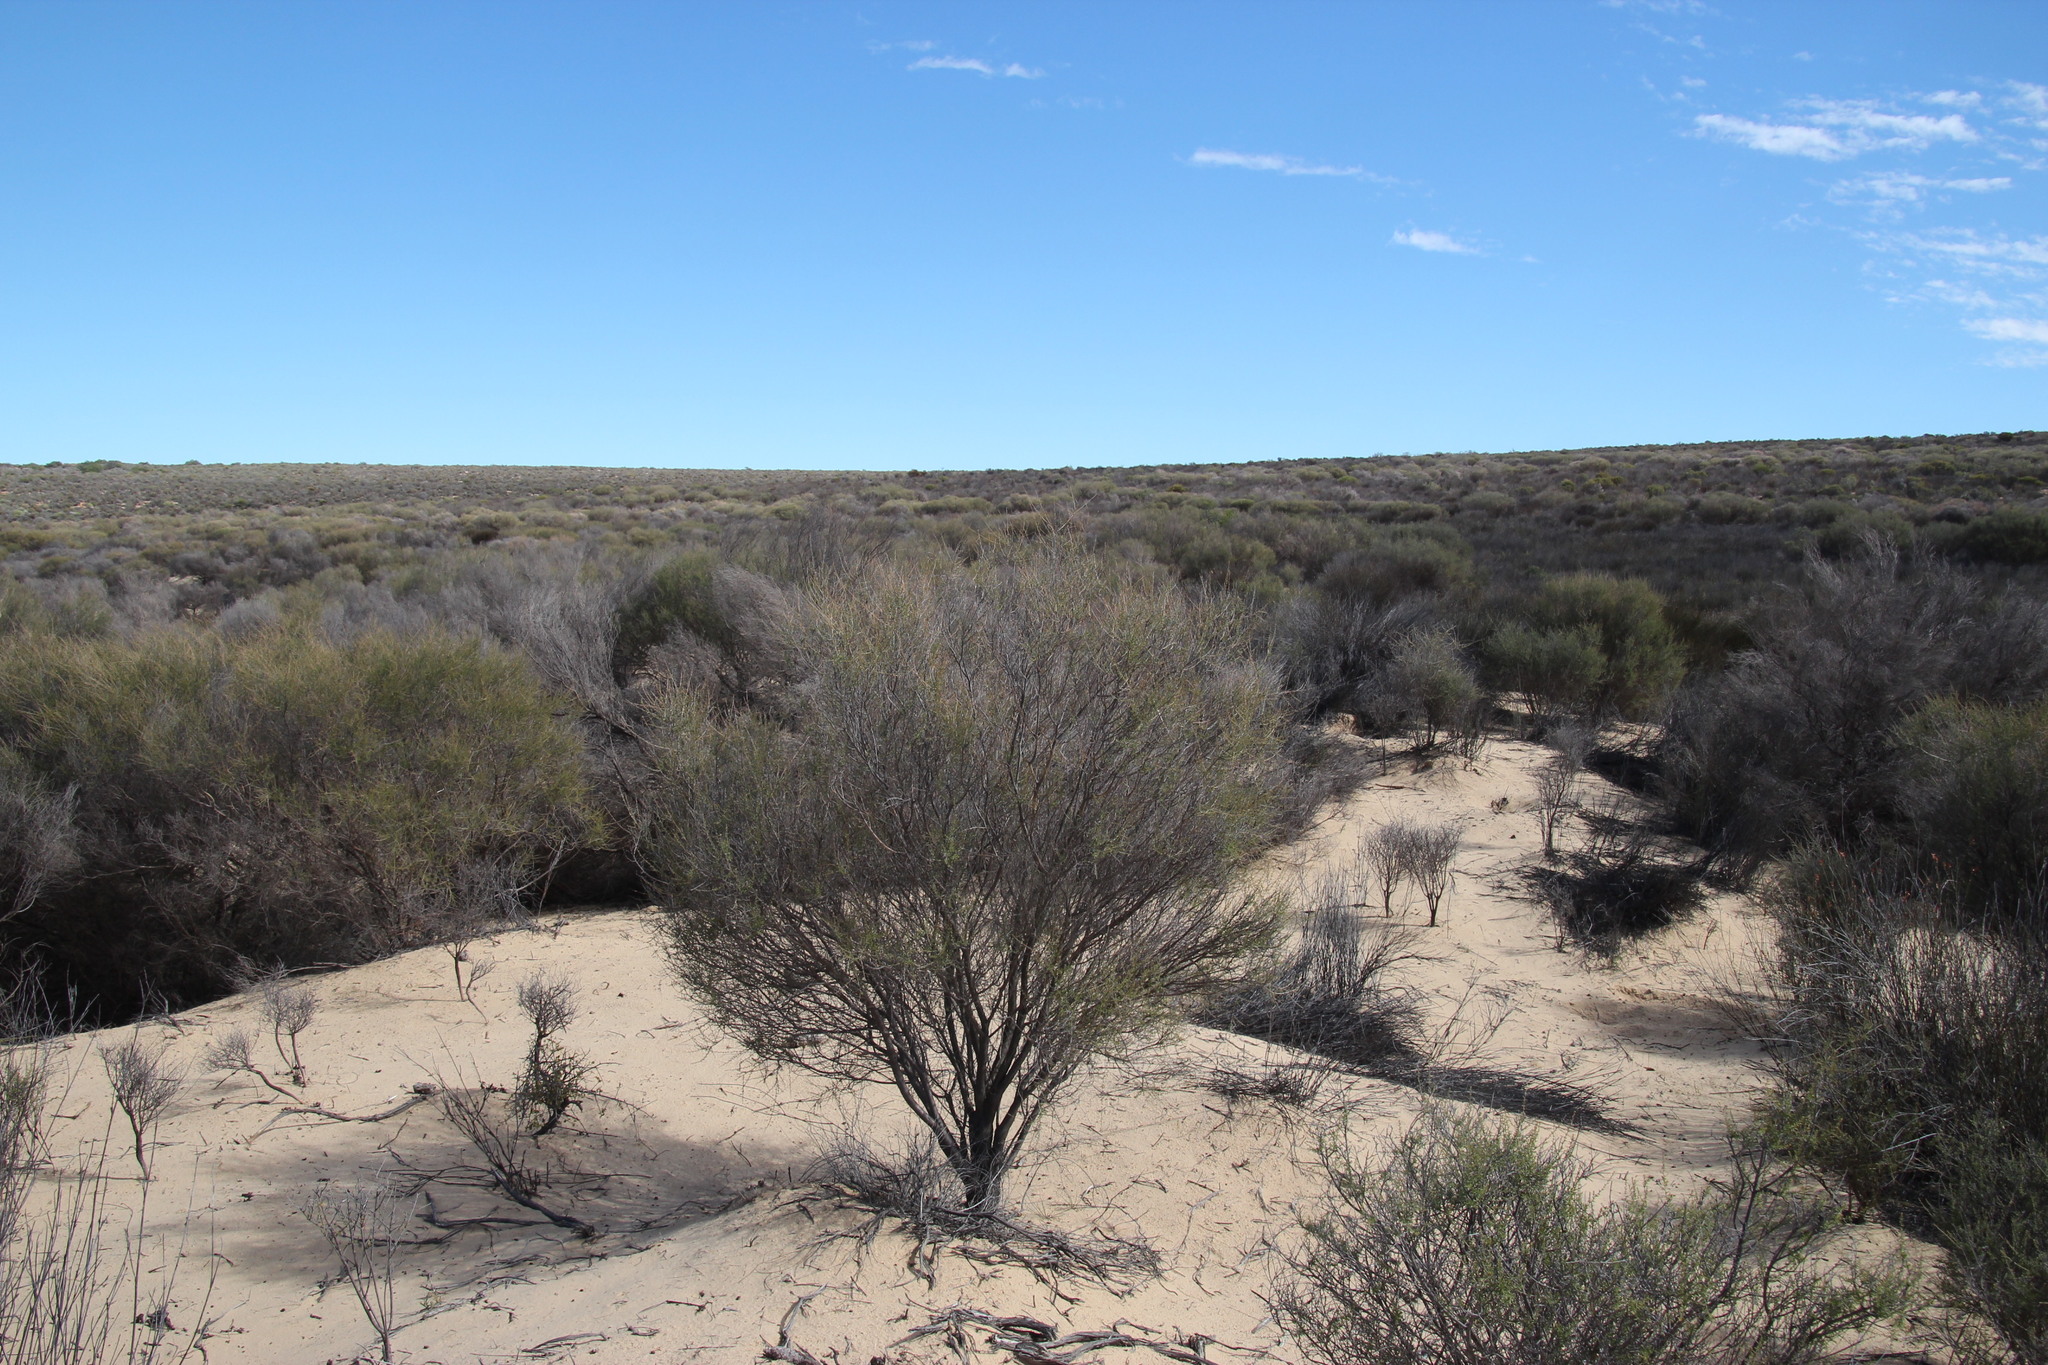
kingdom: Plantae
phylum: Tracheophyta
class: Magnoliopsida
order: Fabales
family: Fabaceae
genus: Aspalathus
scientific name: Aspalathus spinescens
